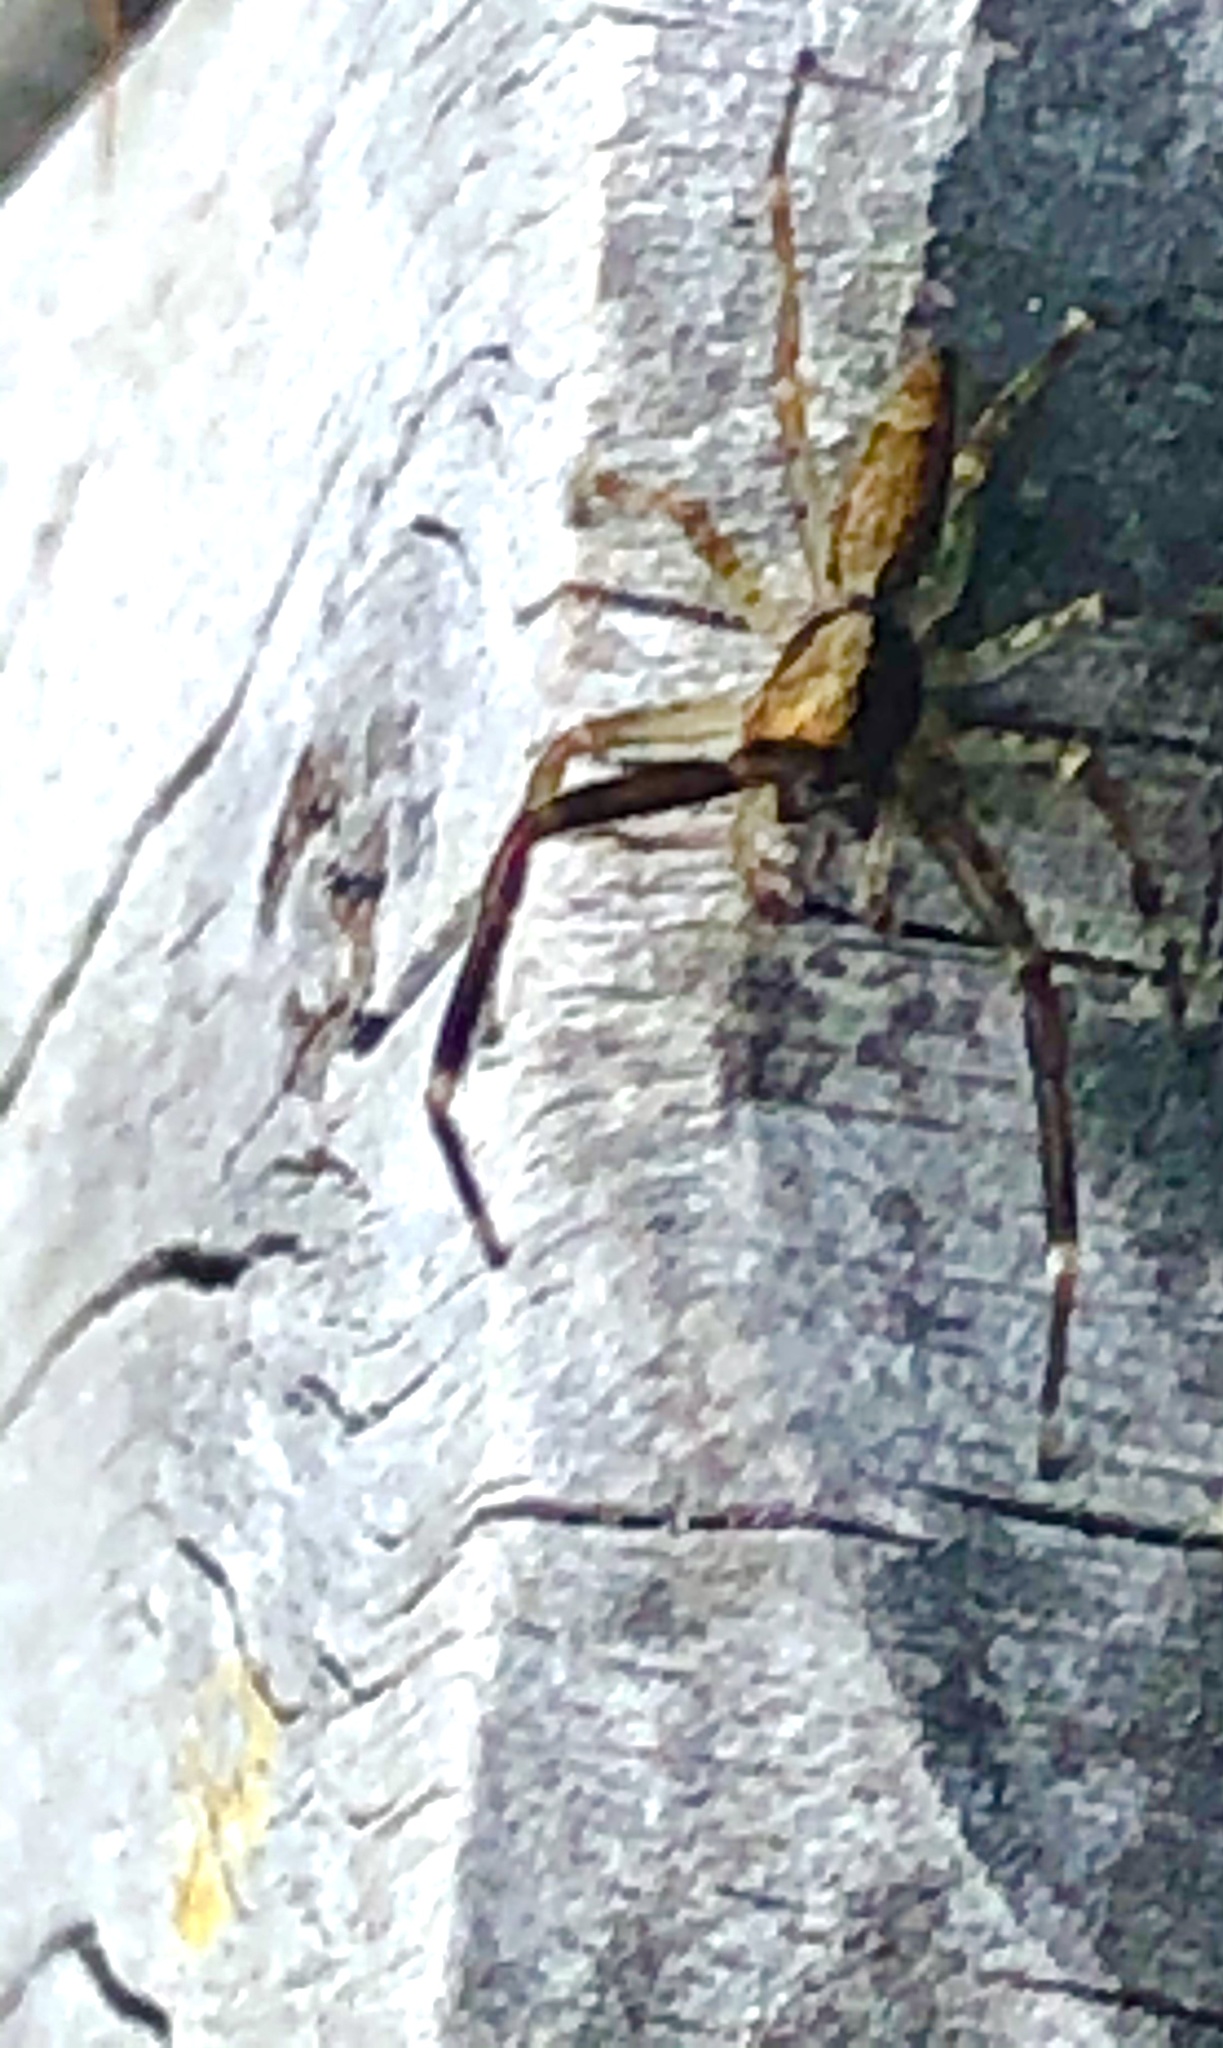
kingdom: Animalia
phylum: Arthropoda
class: Arachnida
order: Araneae
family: Salticidae
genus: Helpis
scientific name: Helpis minitabunda
